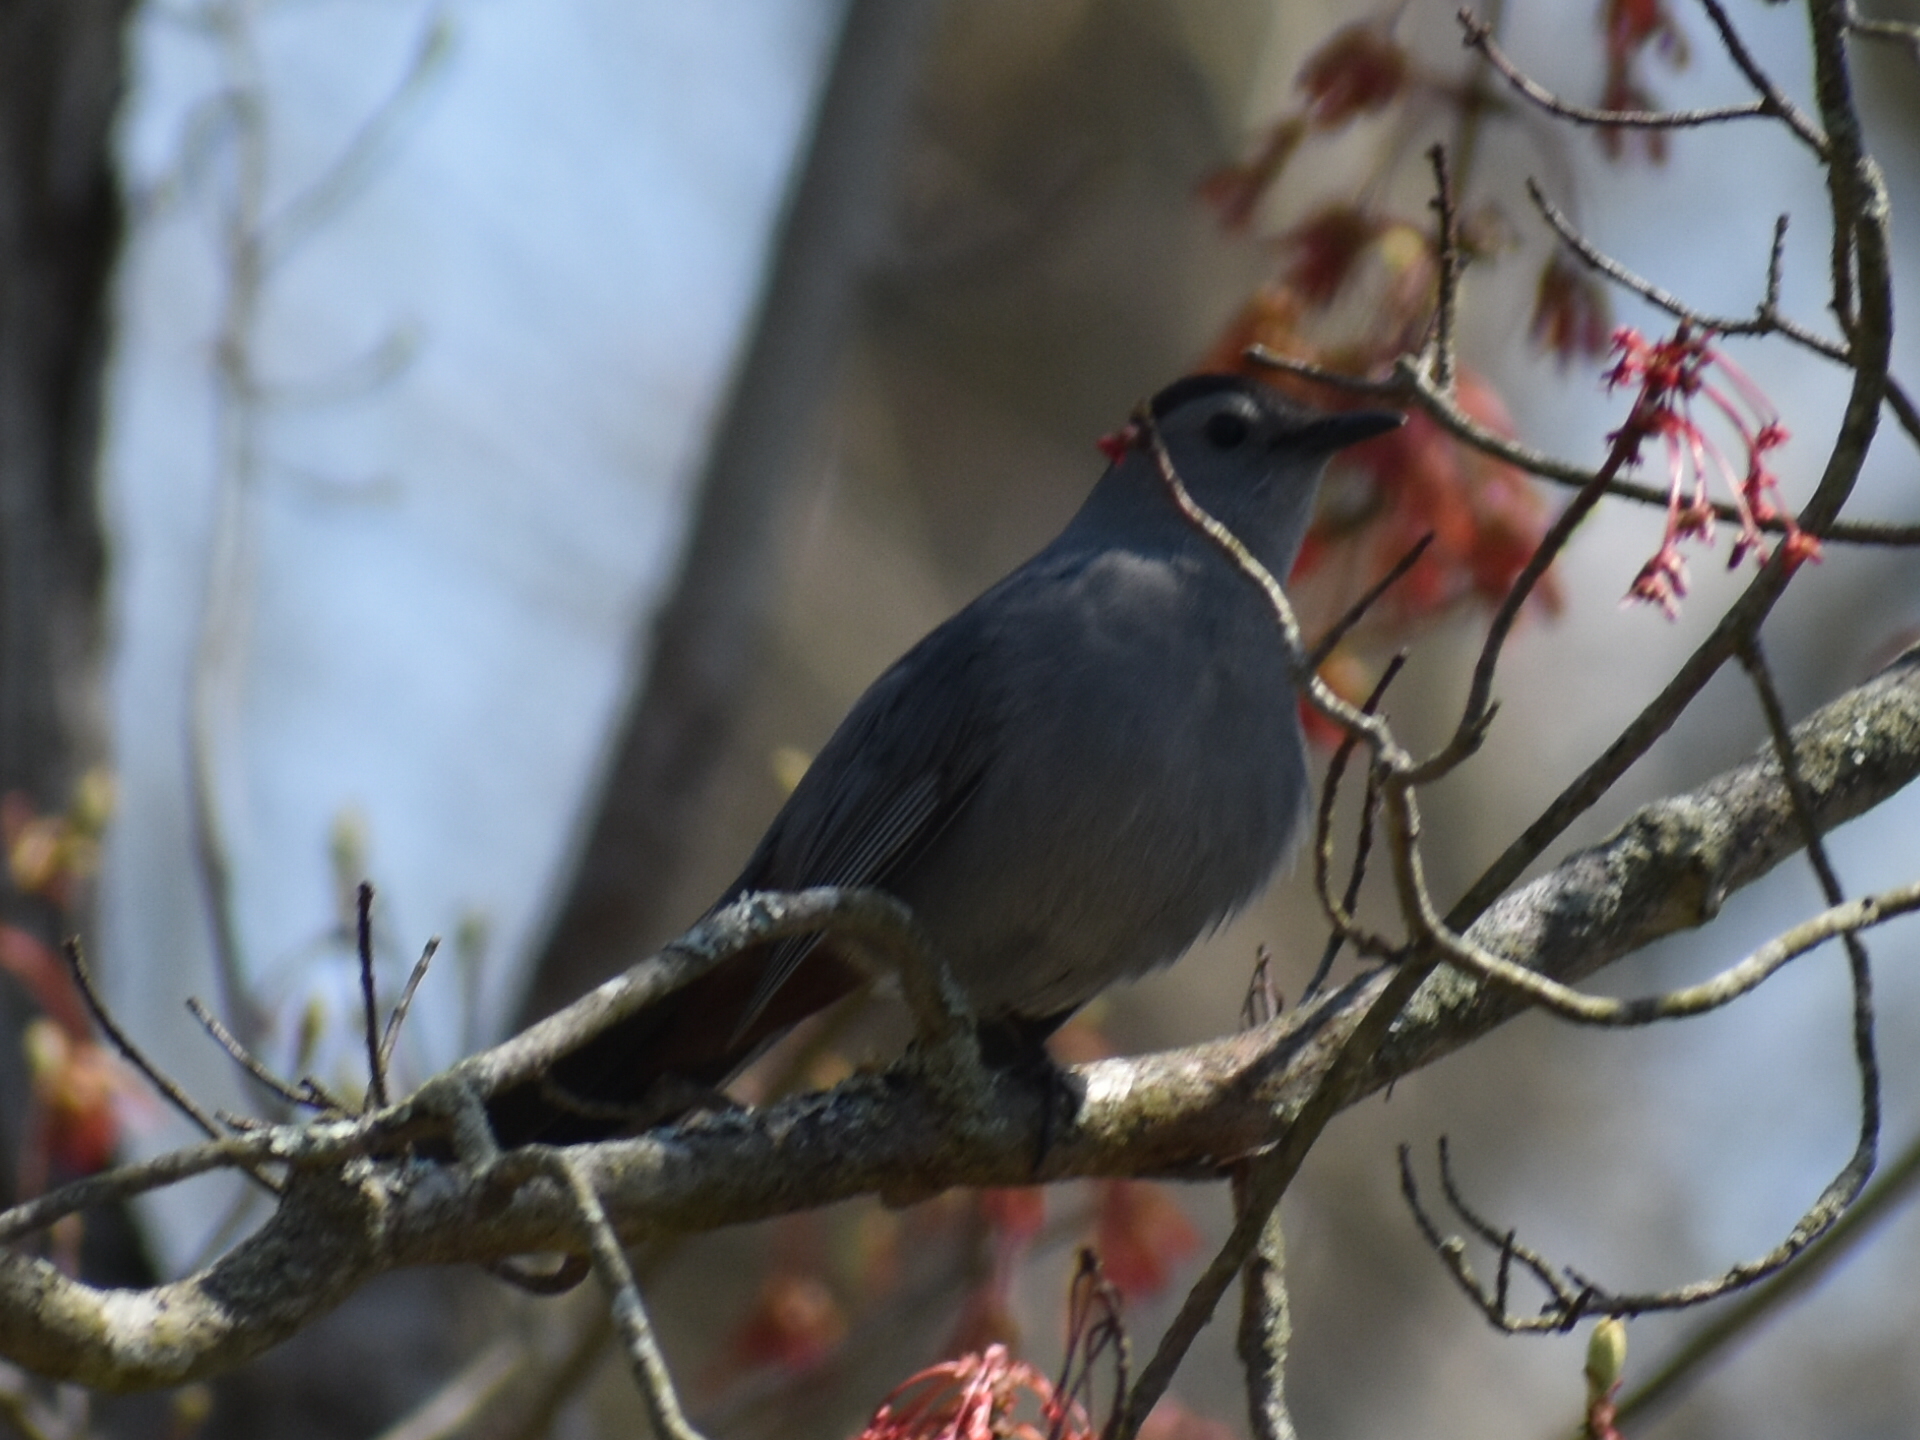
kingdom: Animalia
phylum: Chordata
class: Aves
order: Passeriformes
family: Mimidae
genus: Dumetella
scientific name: Dumetella carolinensis
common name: Gray catbird
